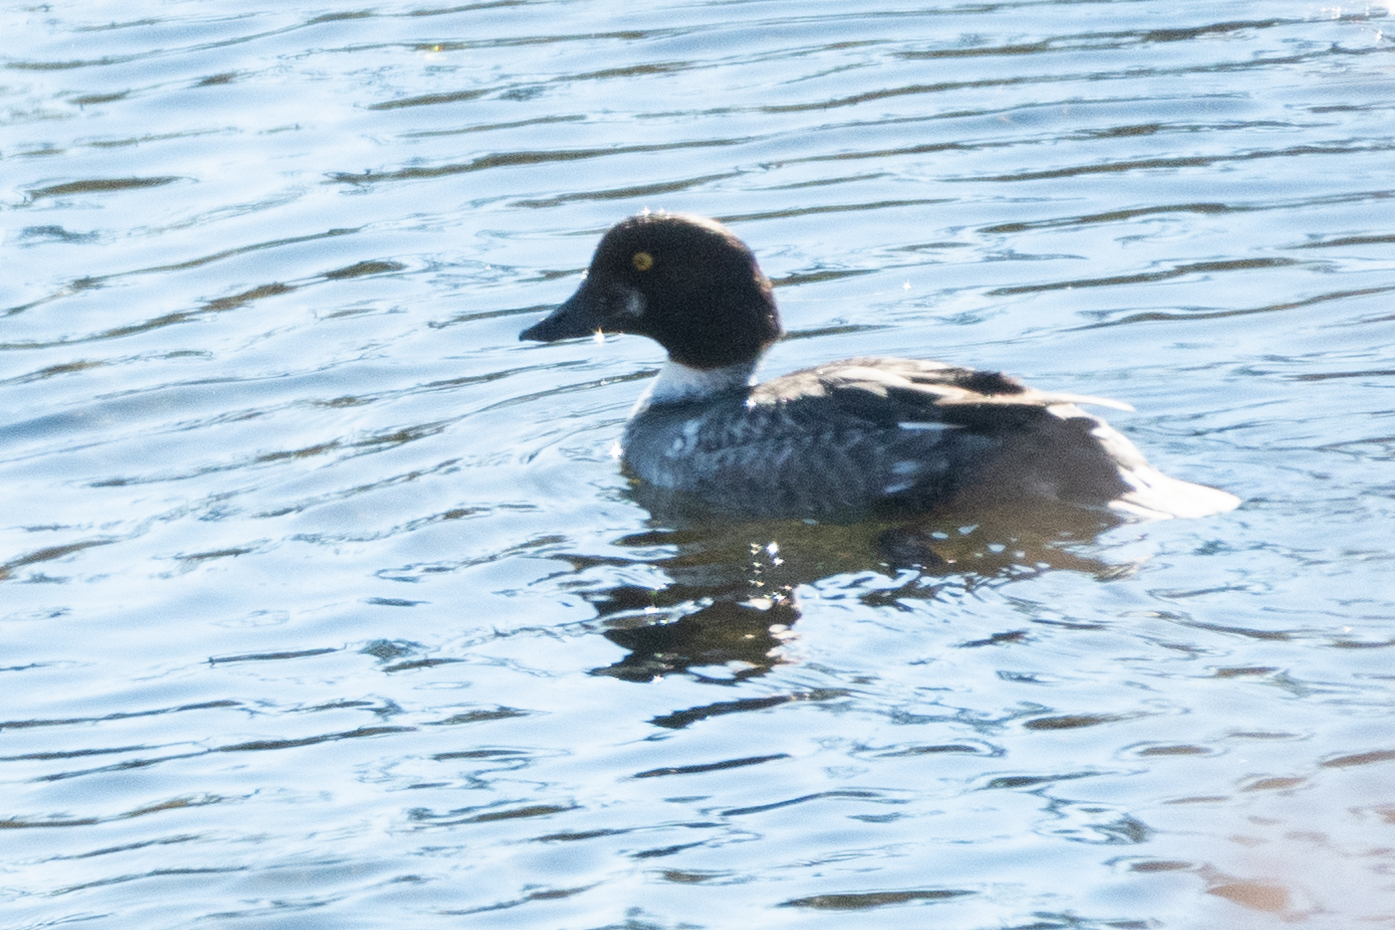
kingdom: Animalia
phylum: Chordata
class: Aves
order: Anseriformes
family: Anatidae
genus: Bucephala
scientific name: Bucephala clangula
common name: Common goldeneye
